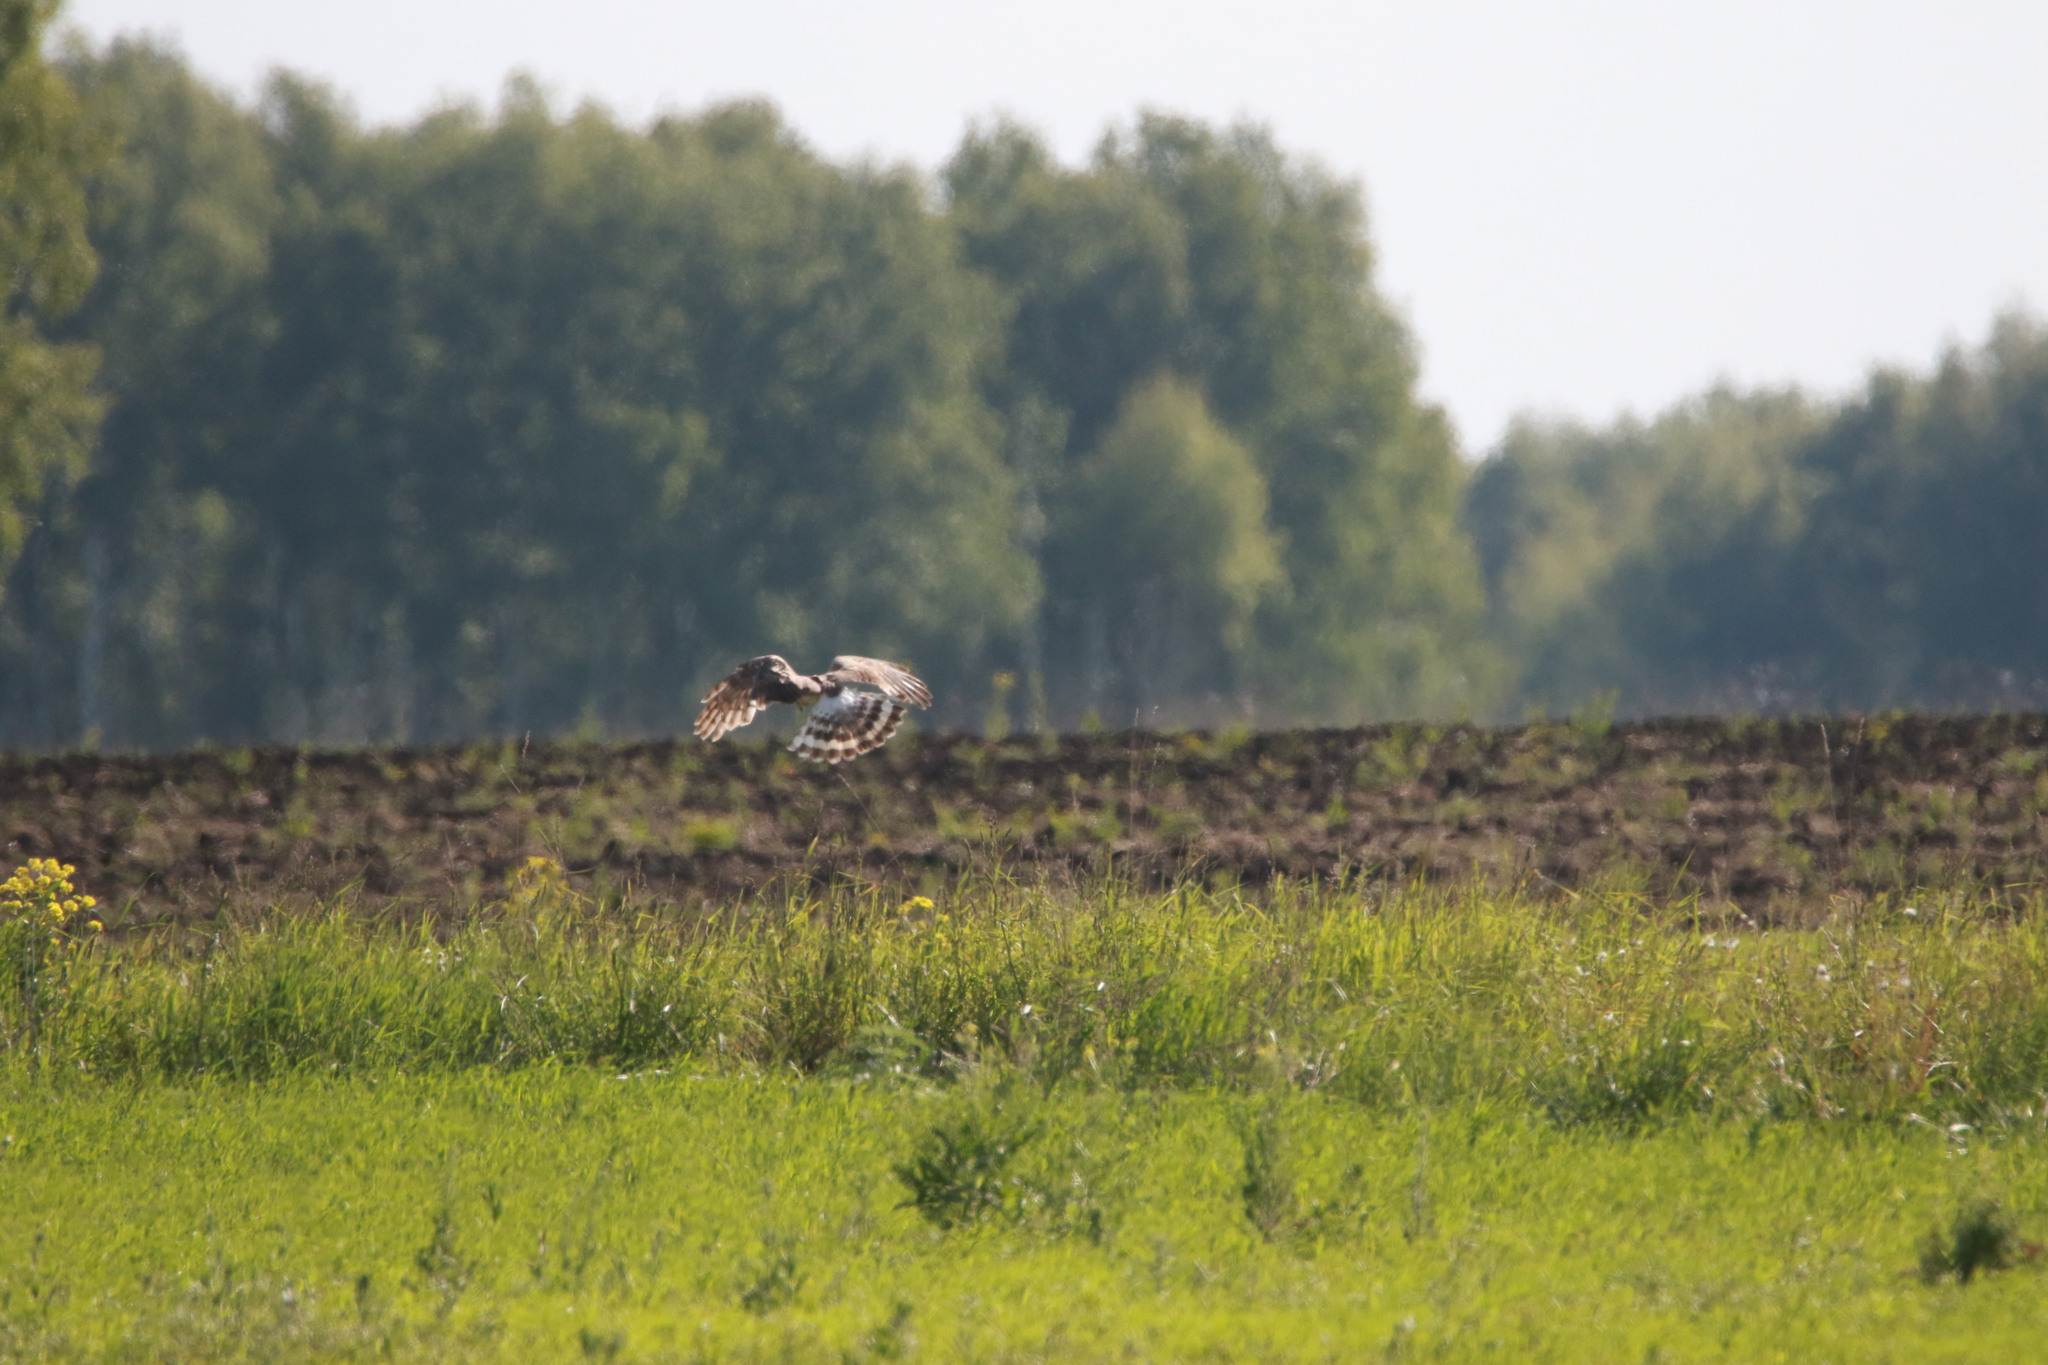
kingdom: Animalia
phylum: Chordata
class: Aves
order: Accipitriformes
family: Accipitridae
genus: Circus
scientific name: Circus cyaneus
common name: Hen harrier
